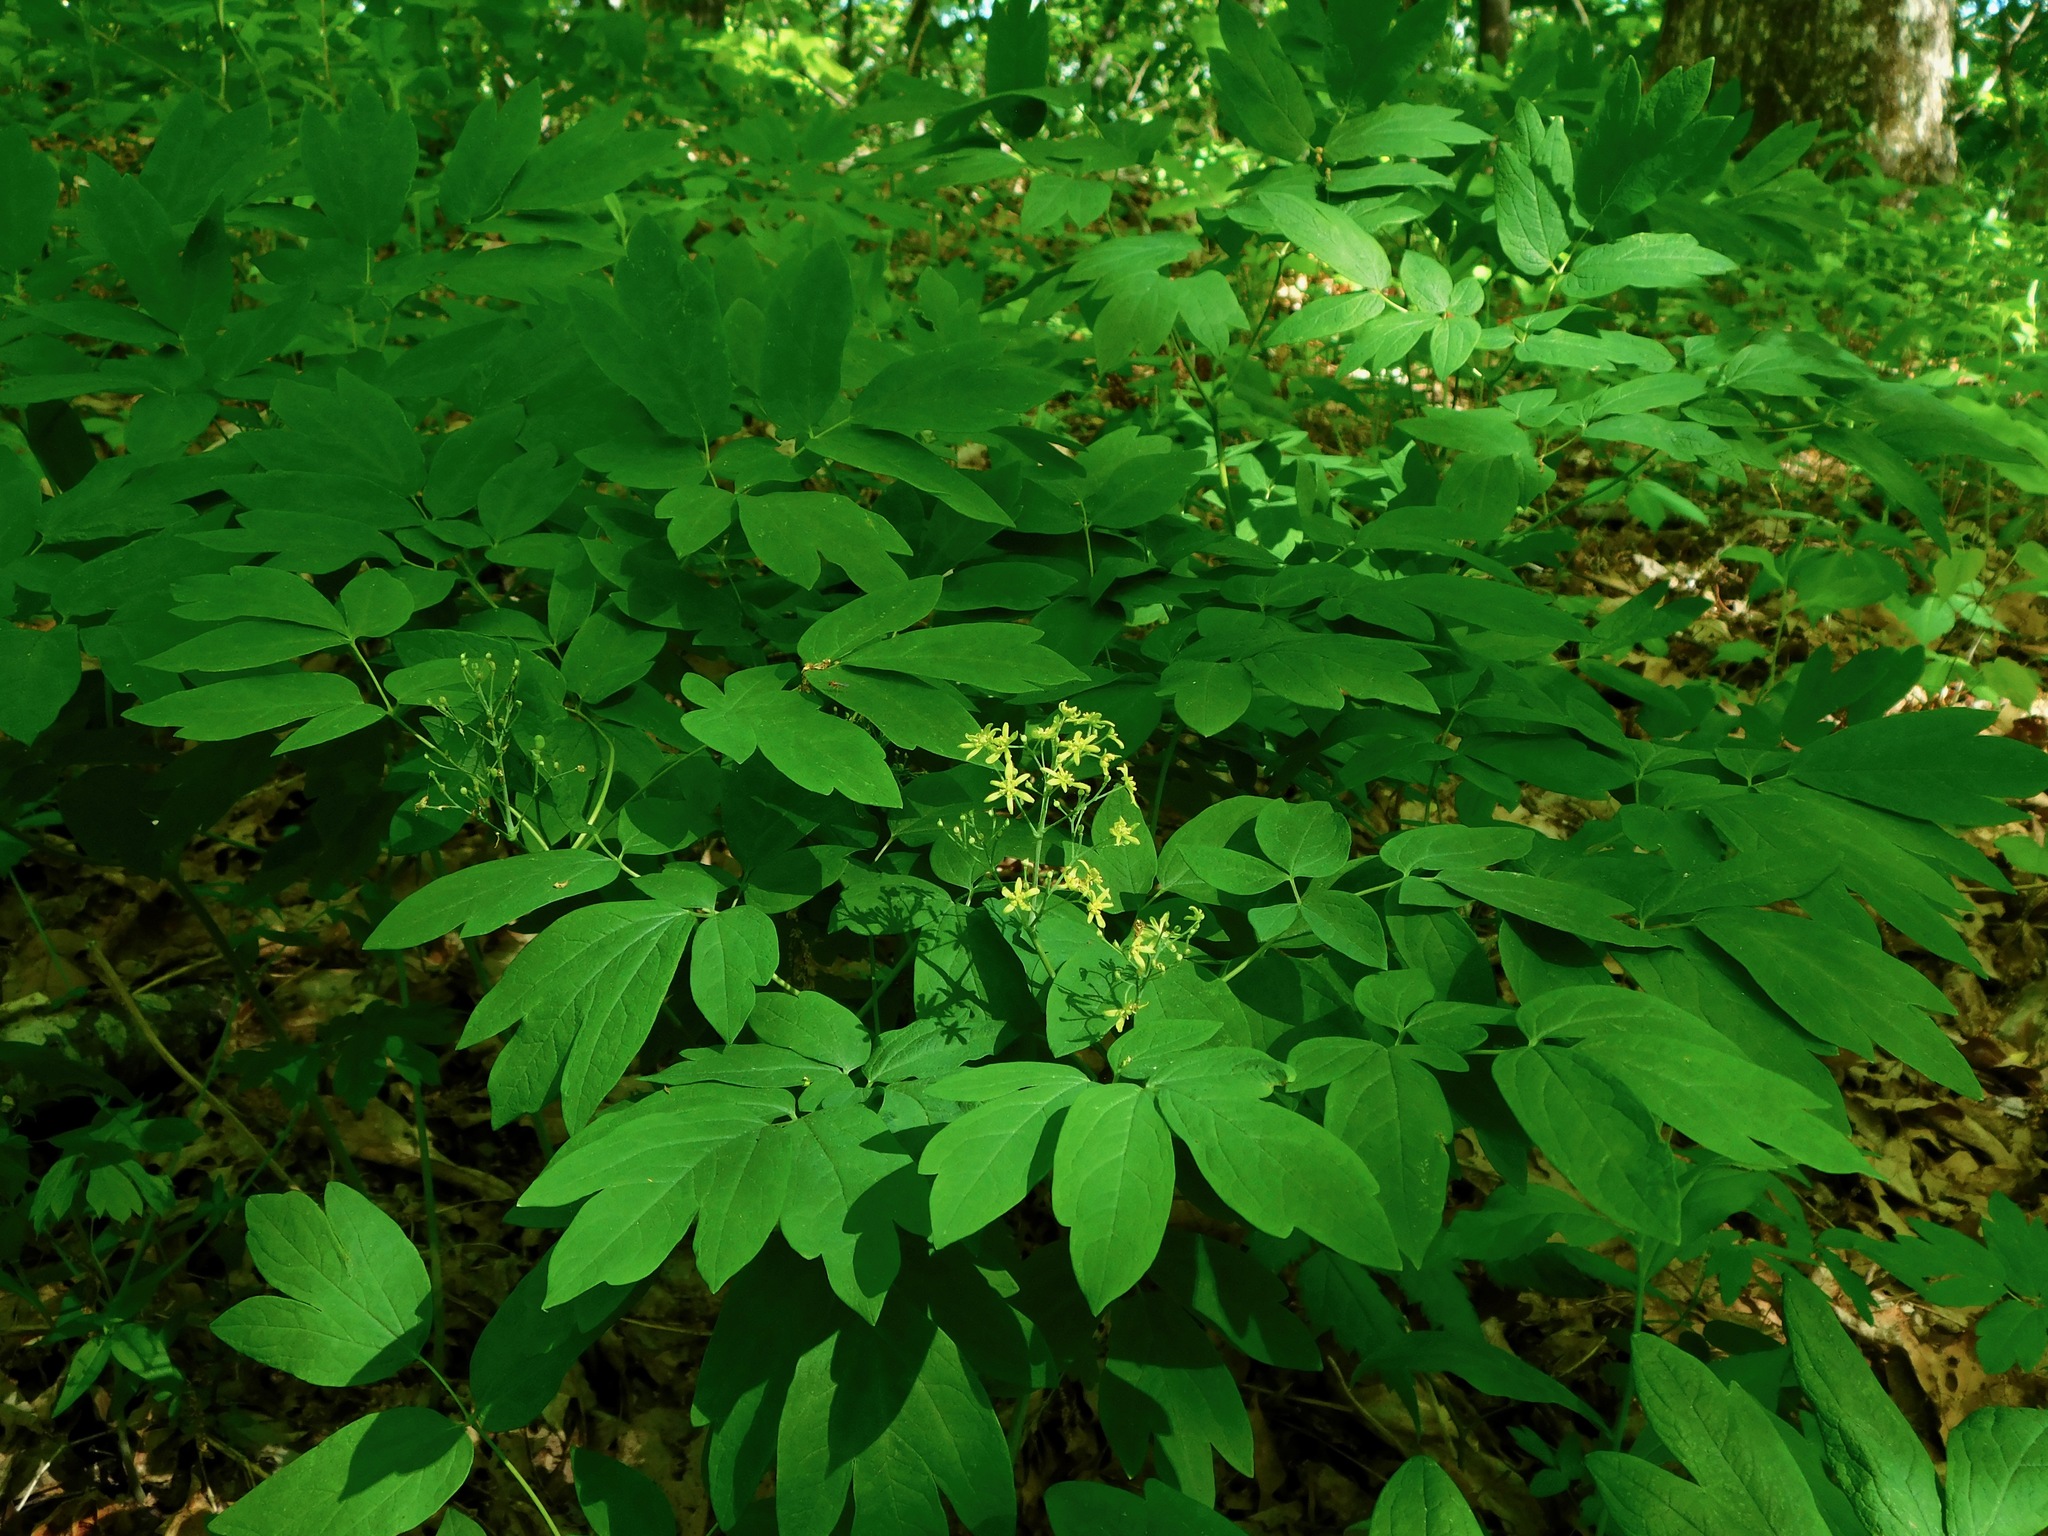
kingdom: Plantae
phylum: Tracheophyta
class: Magnoliopsida
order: Ranunculales
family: Berberidaceae
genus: Caulophyllum
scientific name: Caulophyllum thalictroides
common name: Blue cohosh
